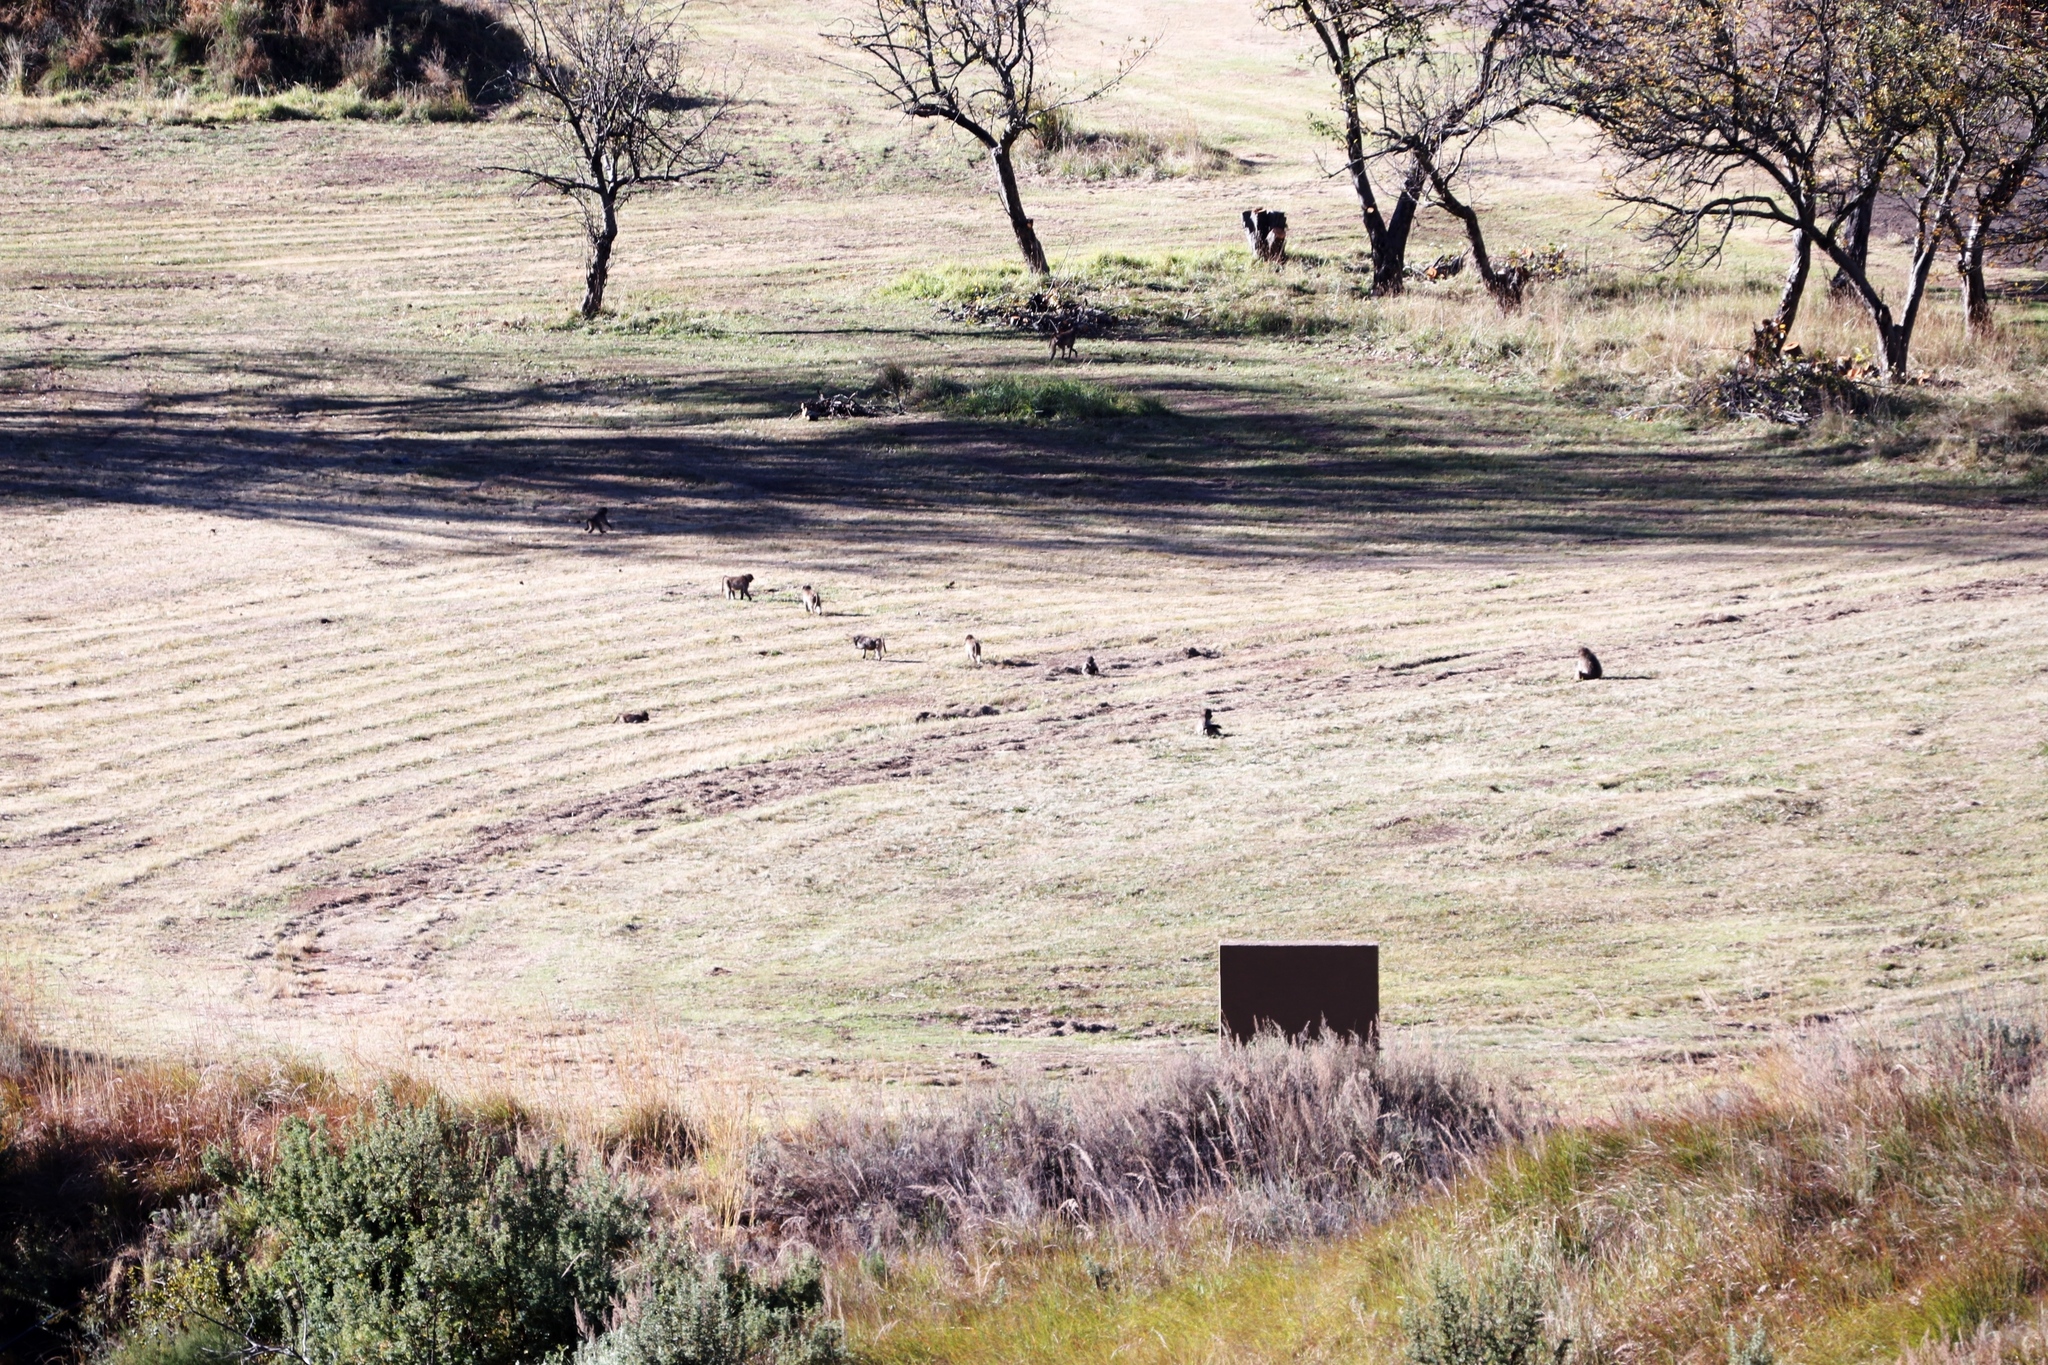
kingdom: Animalia
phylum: Chordata
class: Mammalia
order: Primates
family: Cercopithecidae
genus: Papio
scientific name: Papio ursinus
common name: Chacma baboon
